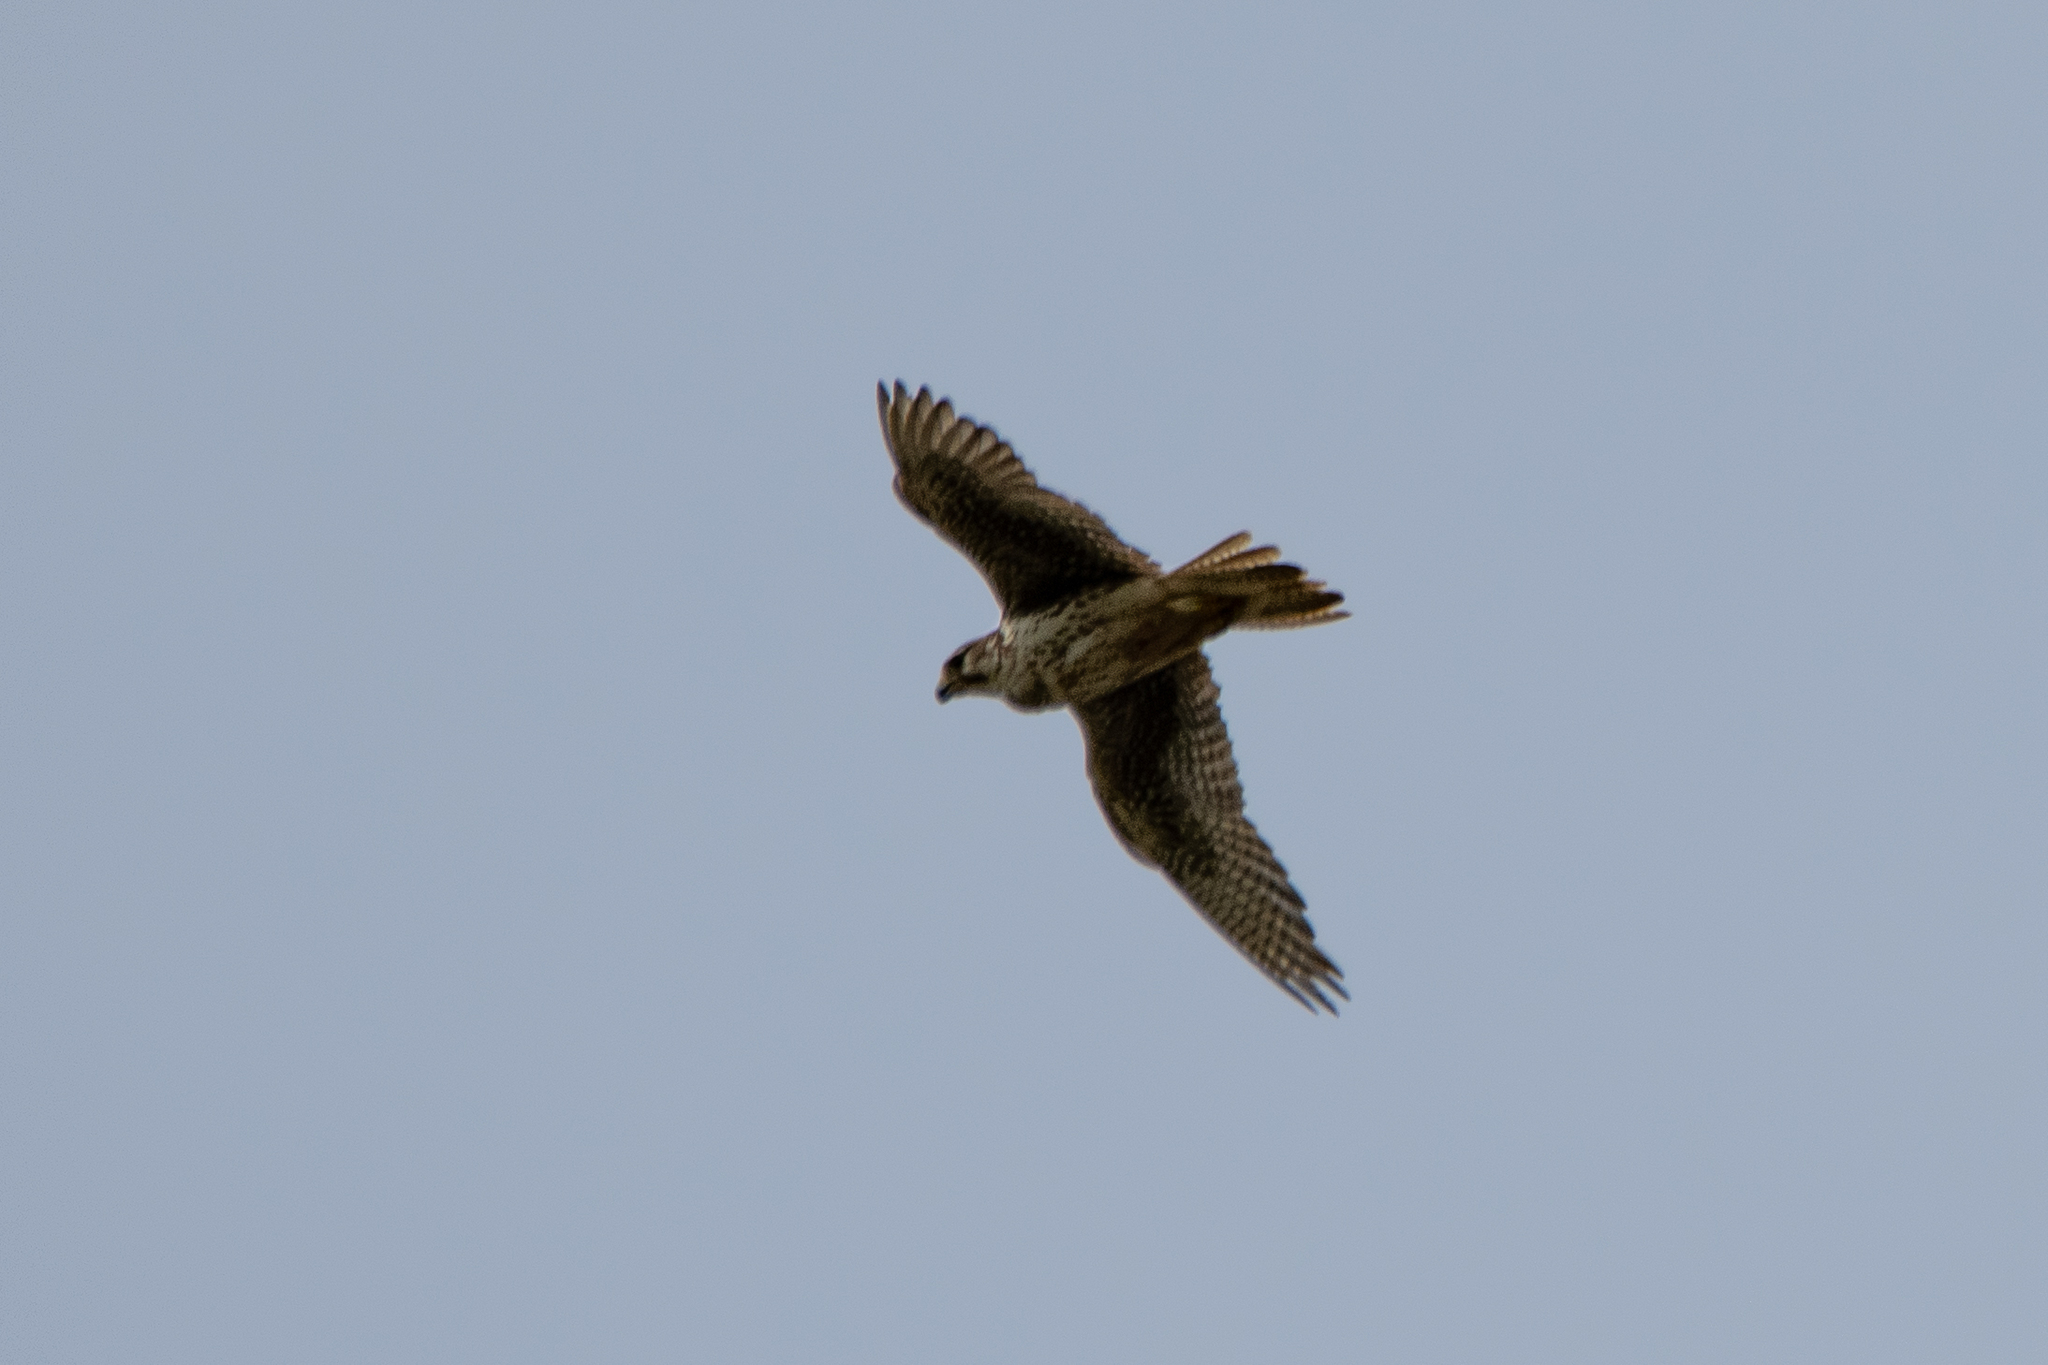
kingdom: Animalia
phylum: Chordata
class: Aves
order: Falconiformes
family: Falconidae
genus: Falco
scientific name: Falco mexicanus
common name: Prairie falcon
